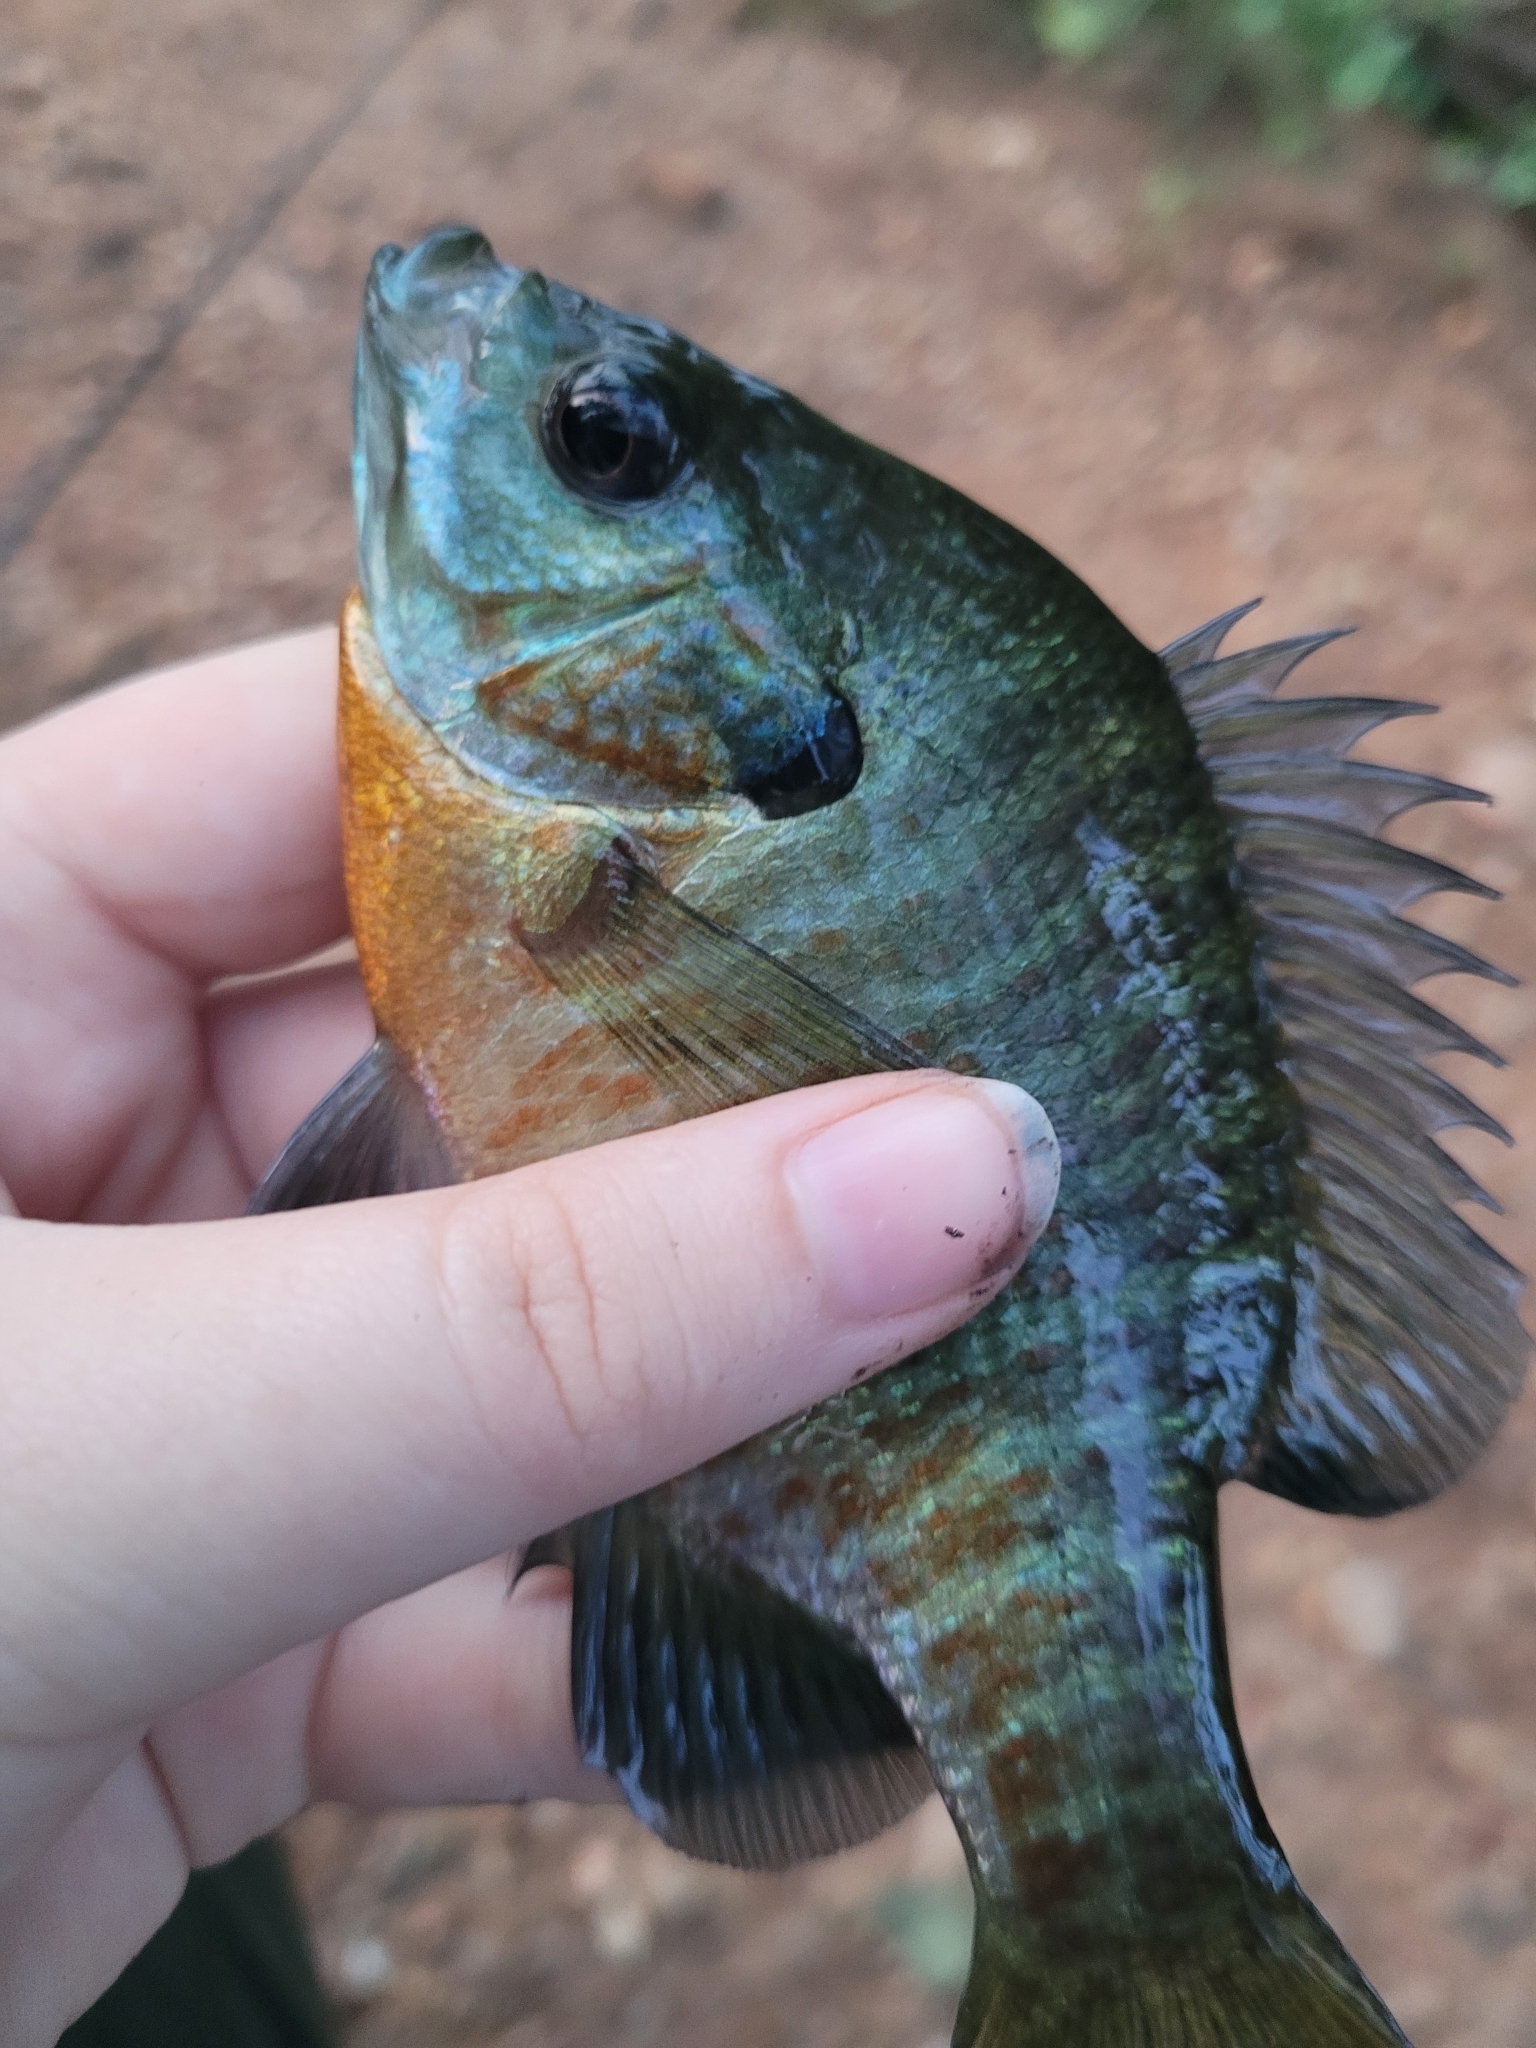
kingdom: Animalia
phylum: Chordata
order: Perciformes
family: Centrarchidae
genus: Lepomis
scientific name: Lepomis macrochirus
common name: Bluegill
